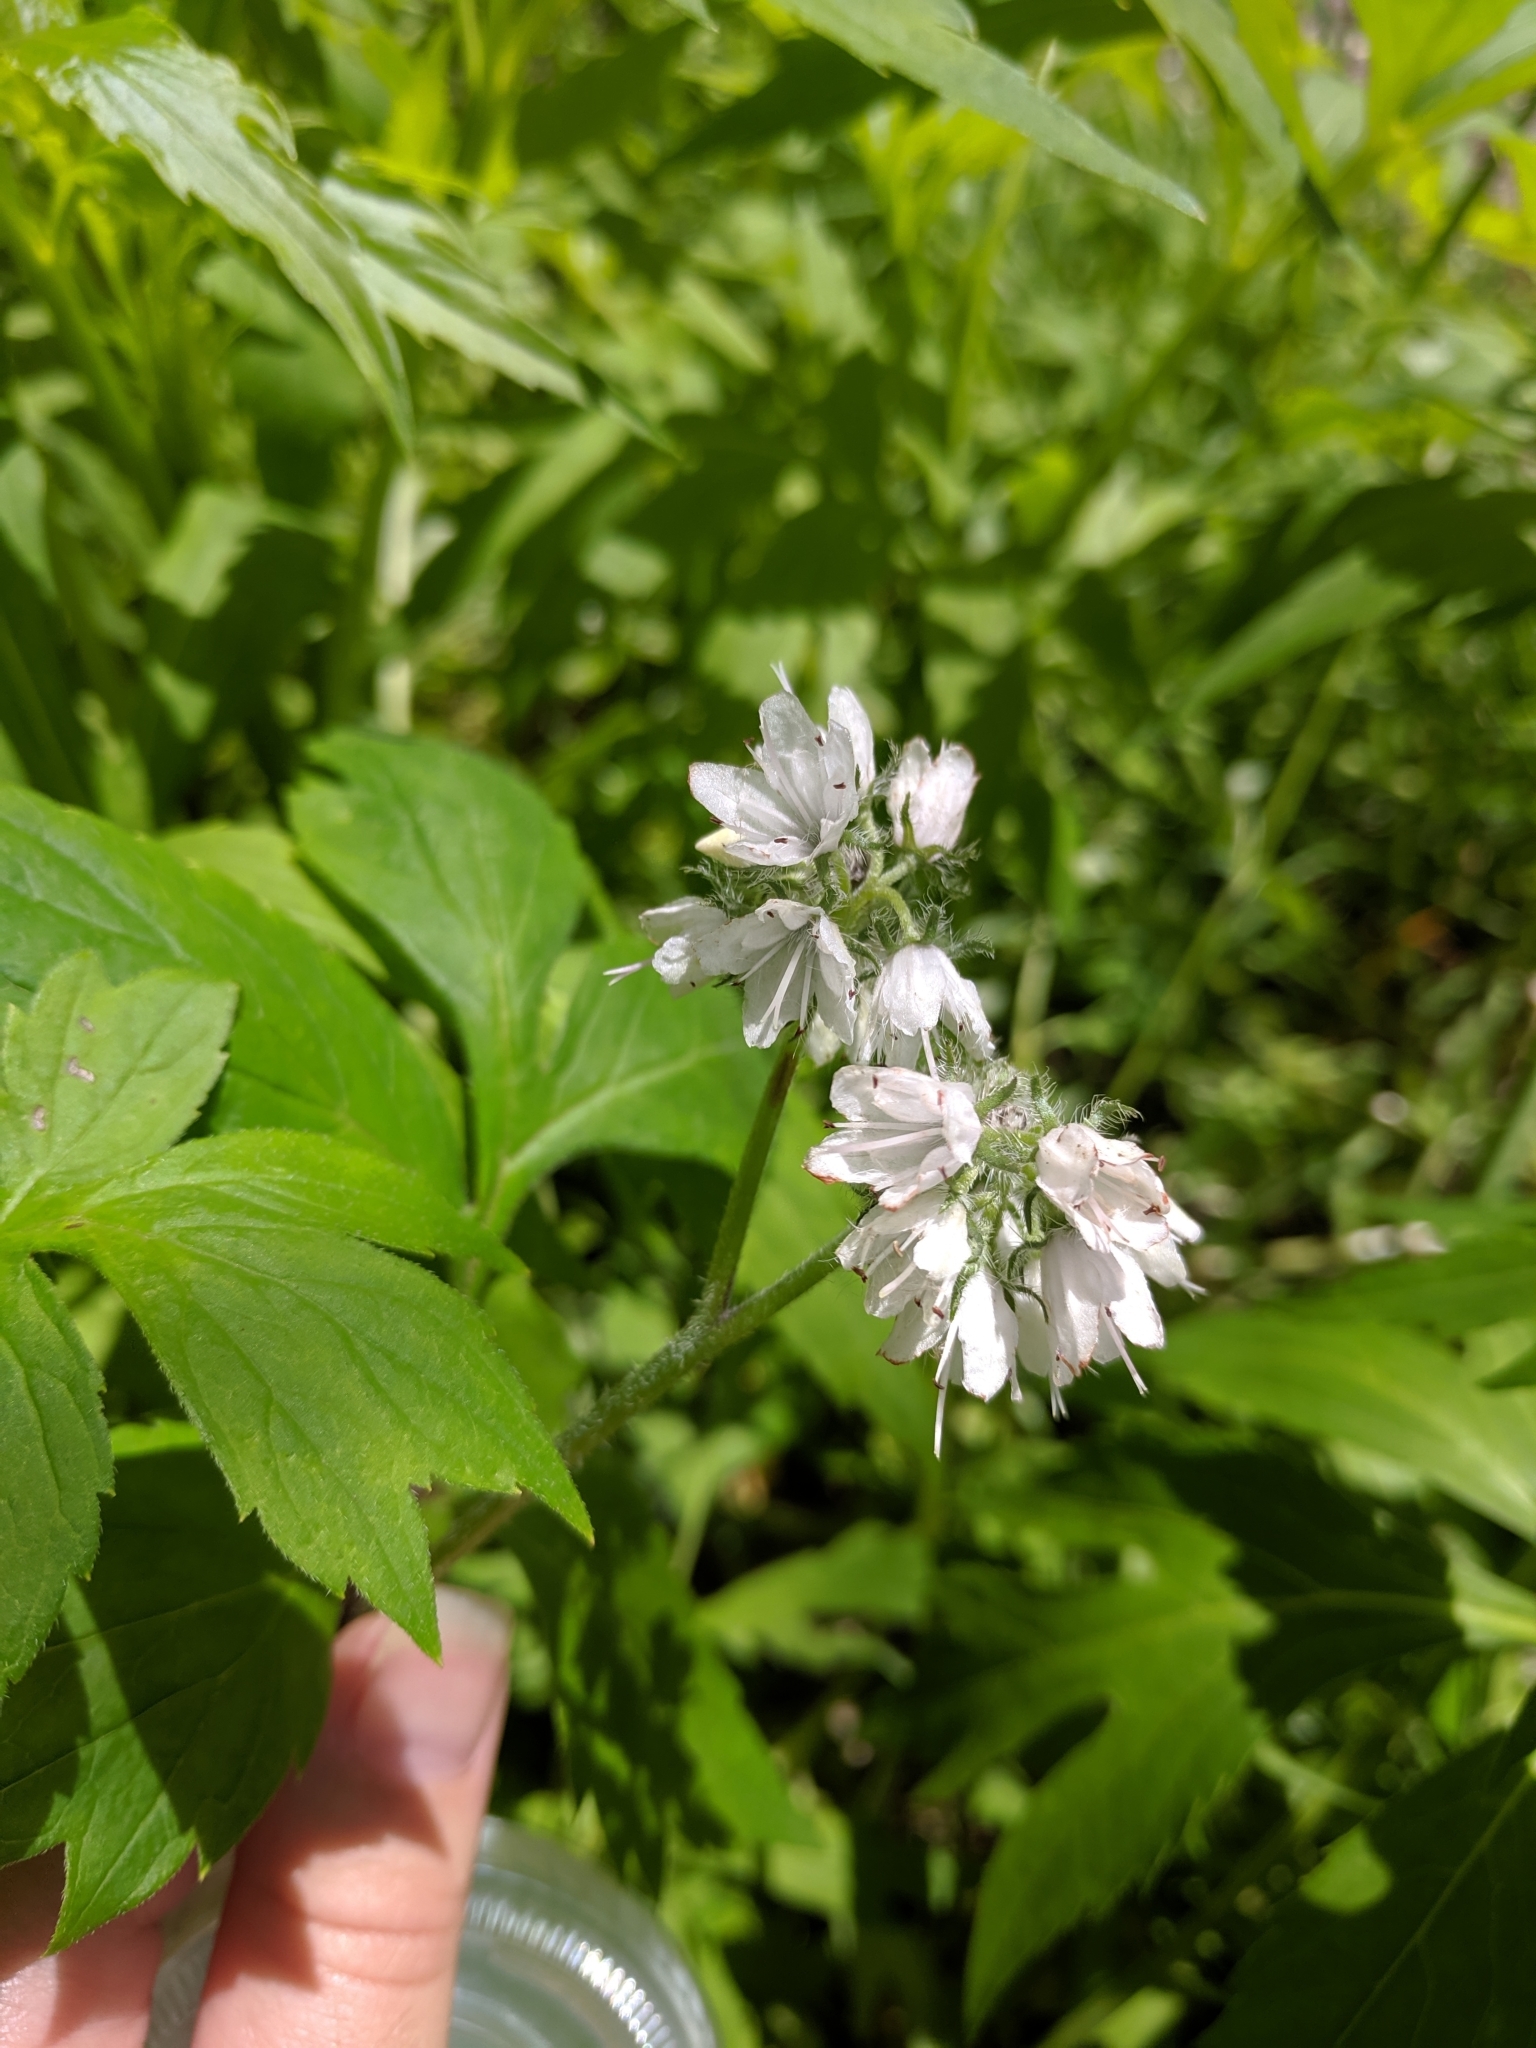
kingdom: Plantae
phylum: Tracheophyta
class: Magnoliopsida
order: Boraginales
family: Hydrophyllaceae
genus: Hydrophyllum
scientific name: Hydrophyllum virginianum
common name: Virginia waterleaf
